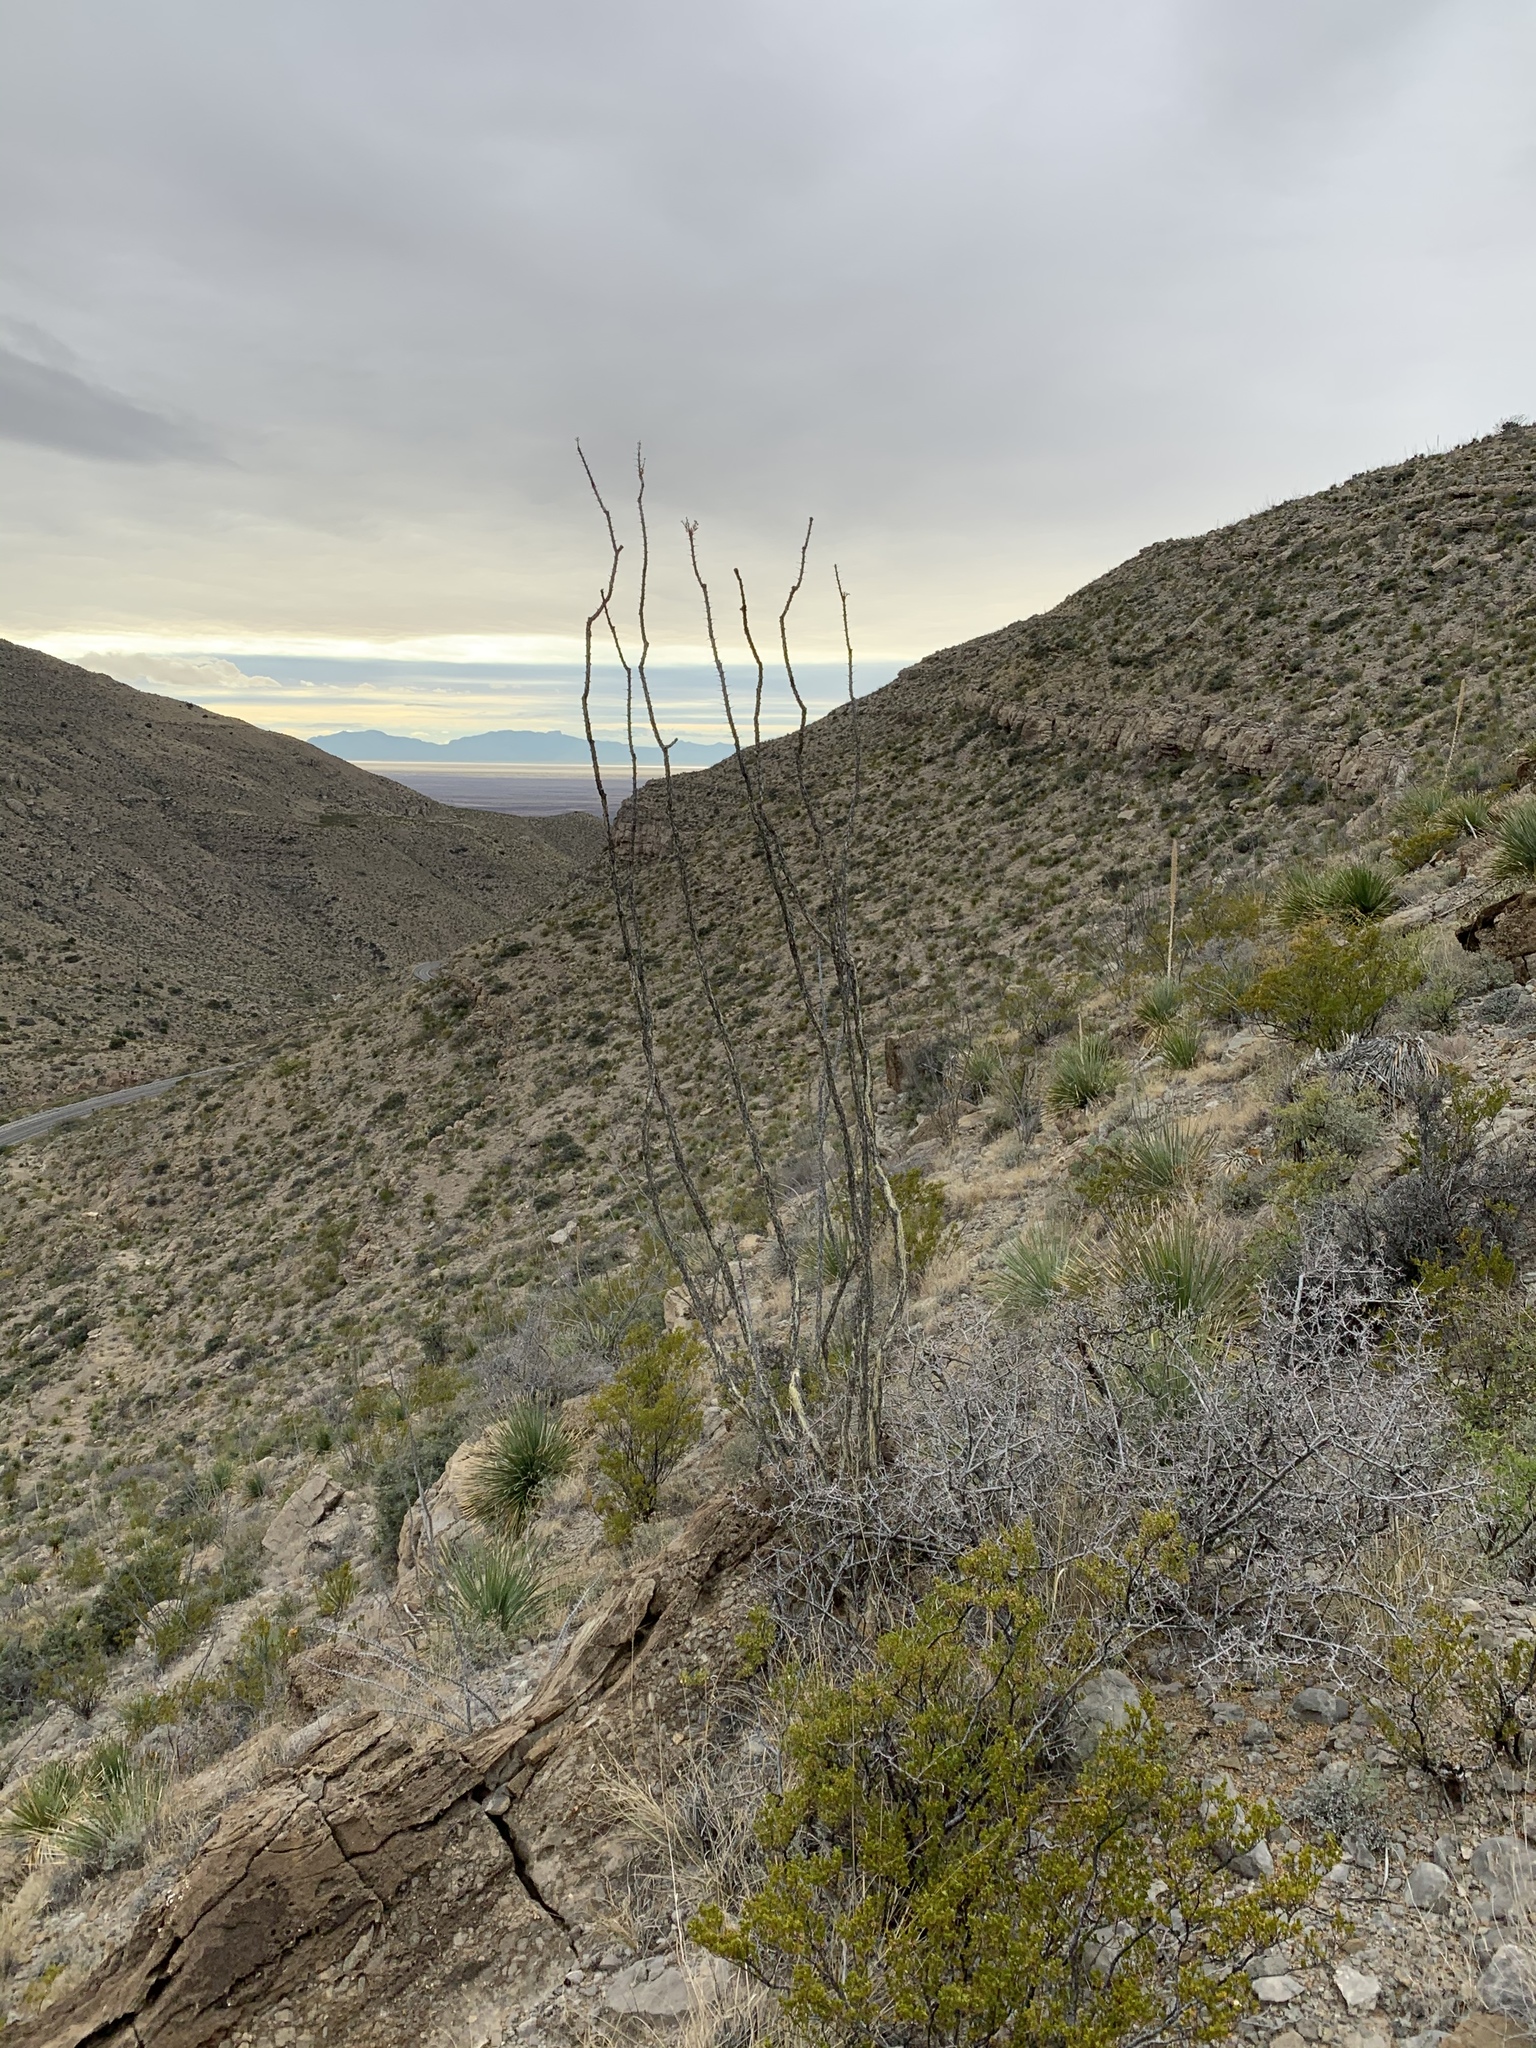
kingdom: Plantae
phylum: Tracheophyta
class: Magnoliopsida
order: Ericales
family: Fouquieriaceae
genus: Fouquieria
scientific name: Fouquieria splendens
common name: Vine-cactus
